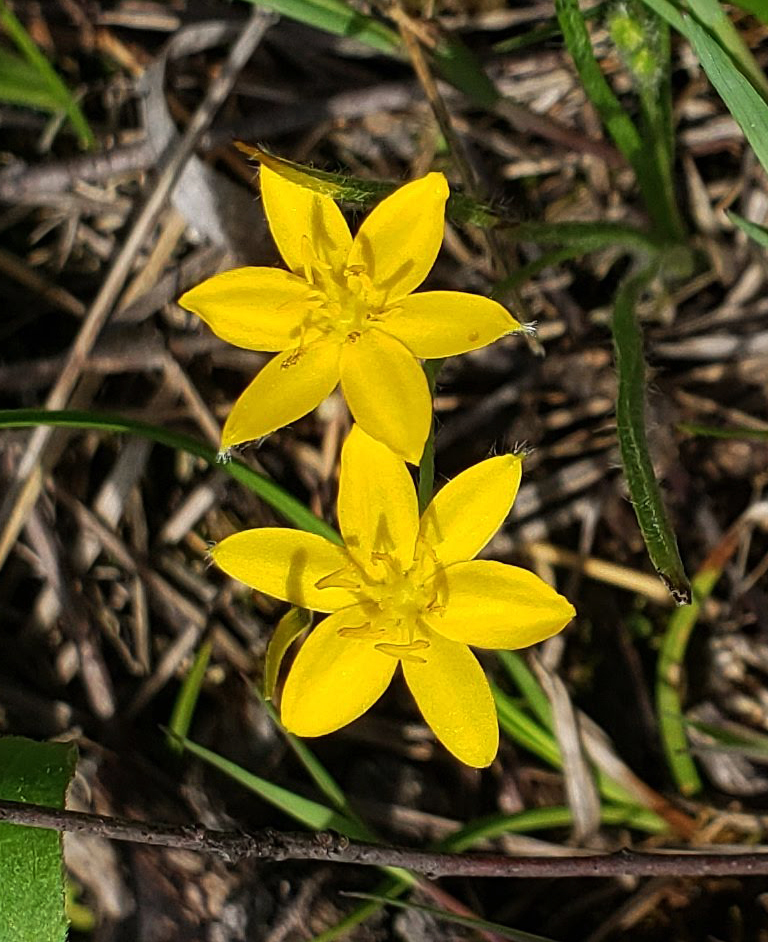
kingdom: Plantae
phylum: Tracheophyta
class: Liliopsida
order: Asparagales
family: Hypoxidaceae
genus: Hypoxis
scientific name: Hypoxis hirsuta
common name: Common goldstar
